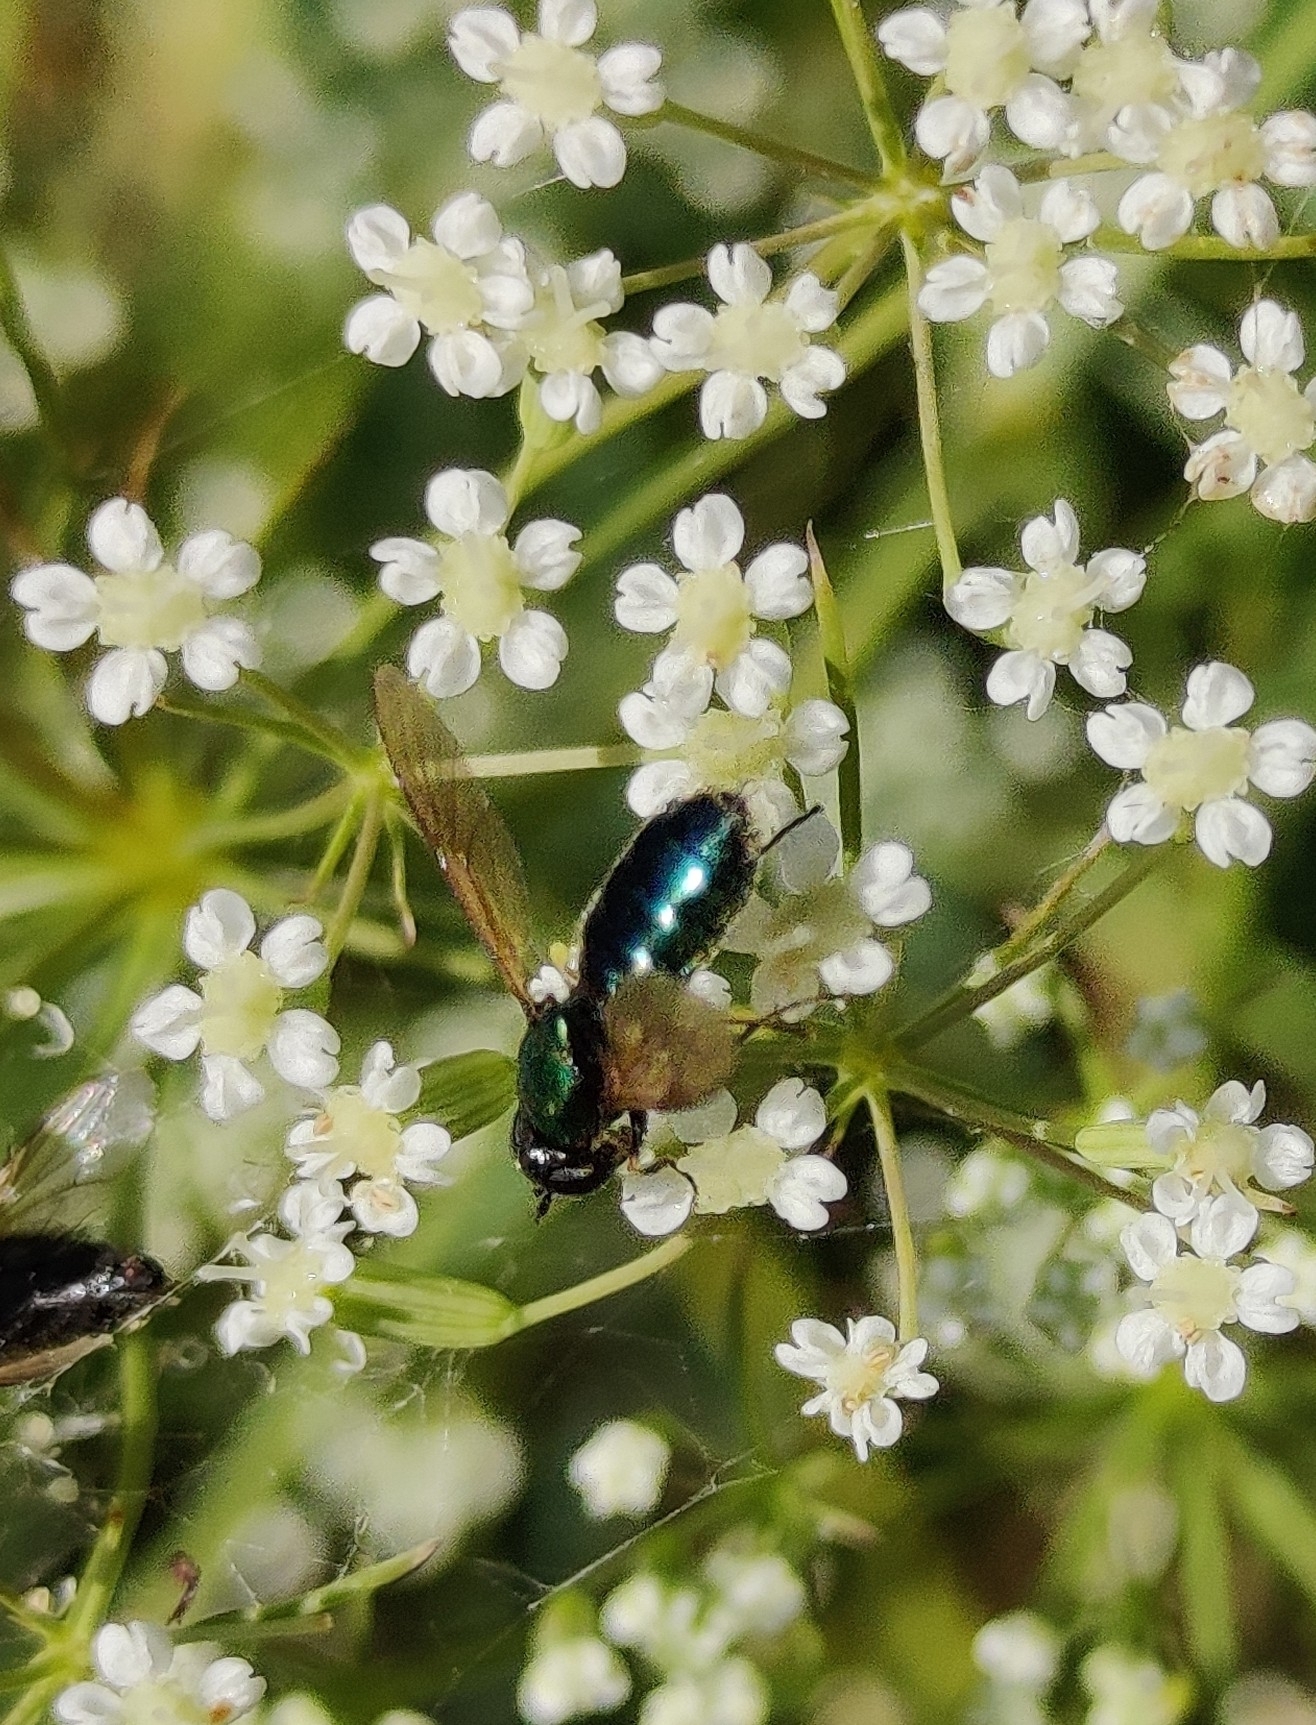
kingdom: Animalia
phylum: Arthropoda
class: Insecta
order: Diptera
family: Stratiomyidae
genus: Chloromyia
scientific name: Chloromyia formosa
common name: Soldier fly
